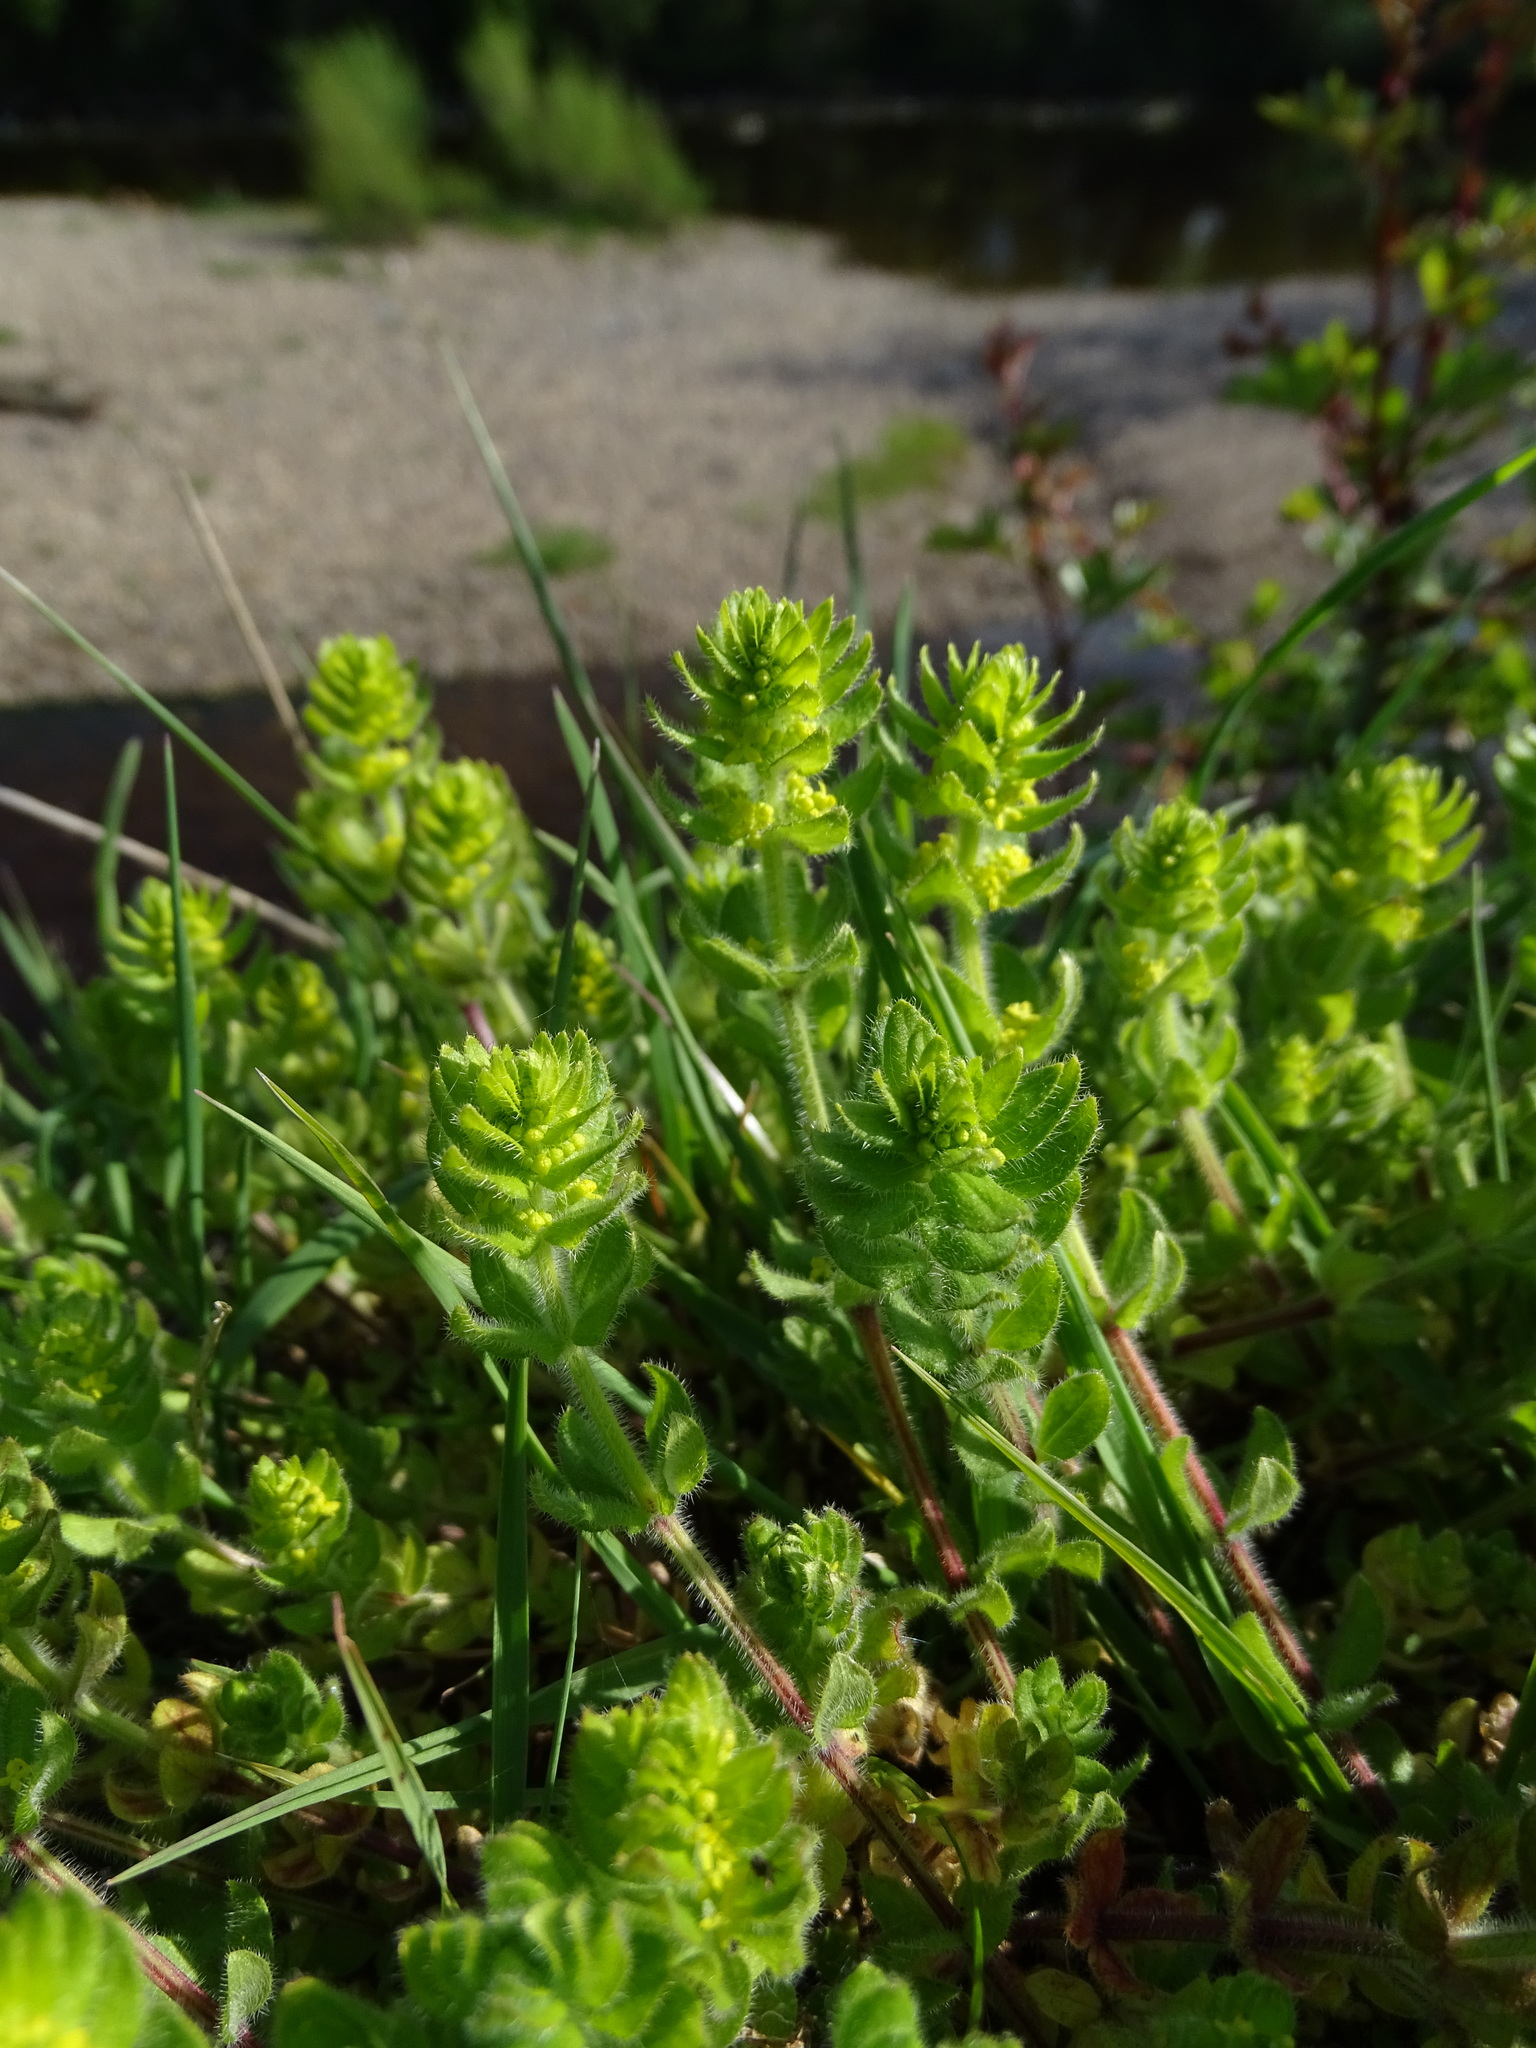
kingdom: Plantae
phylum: Tracheophyta
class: Magnoliopsida
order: Gentianales
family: Rubiaceae
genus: Cruciata
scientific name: Cruciata laevipes
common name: Crosswort
